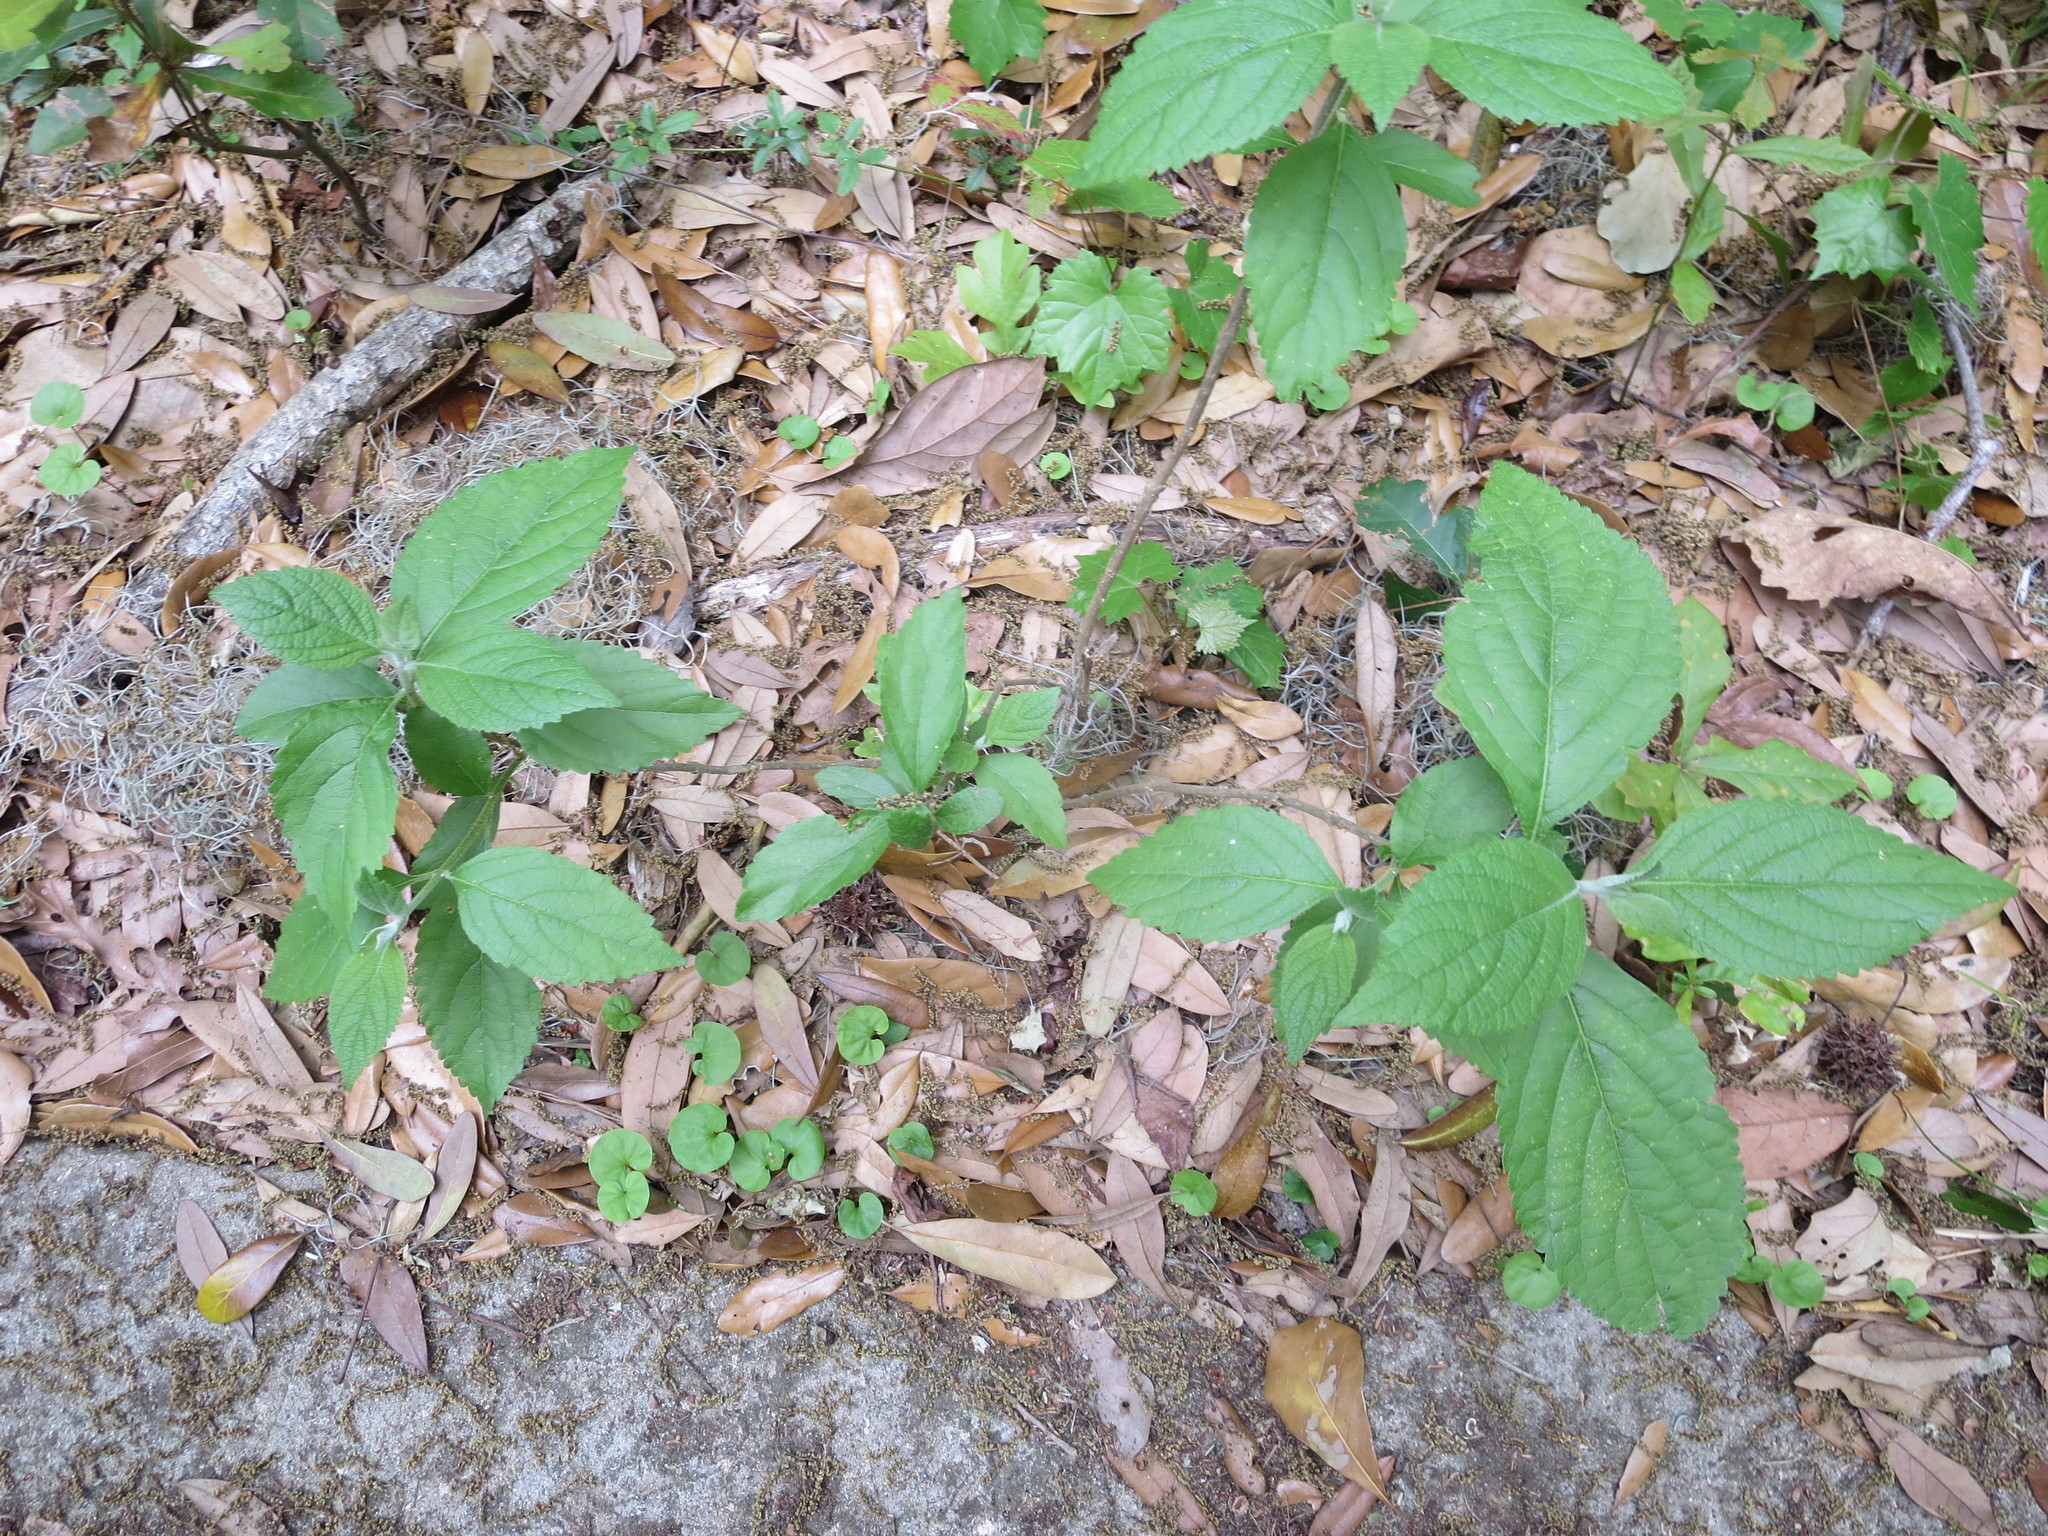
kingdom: Plantae
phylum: Tracheophyta
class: Magnoliopsida
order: Lamiales
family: Lamiaceae
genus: Callicarpa
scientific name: Callicarpa americana
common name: American beautyberry
